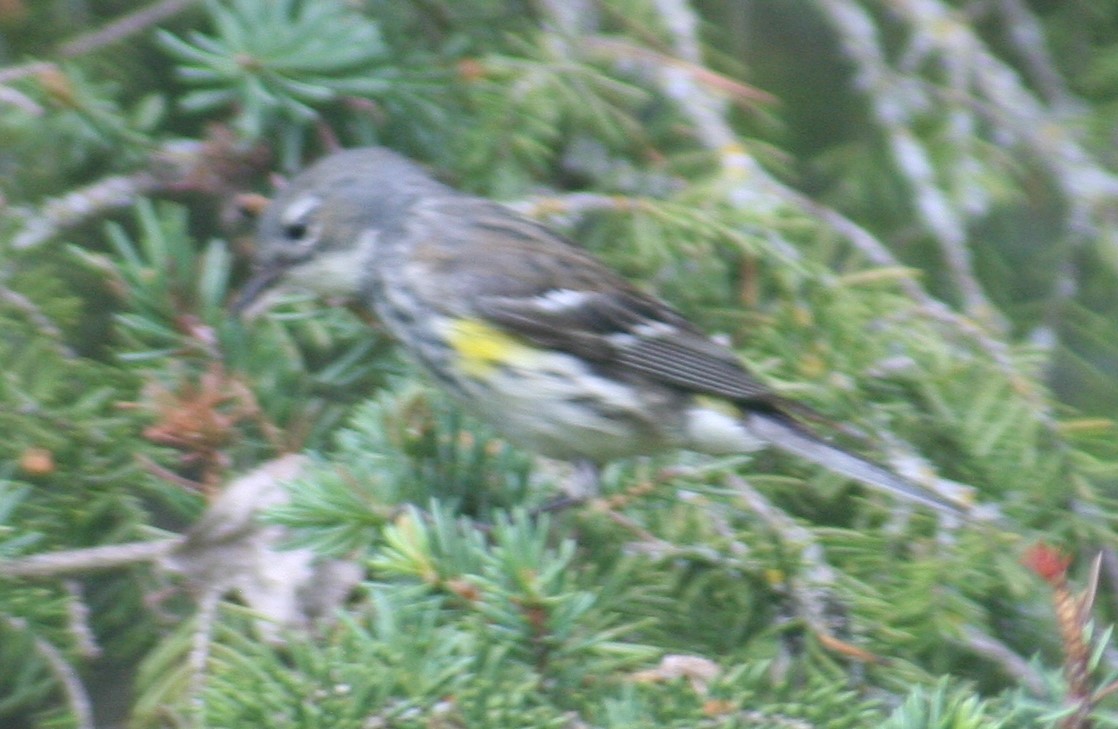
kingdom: Animalia
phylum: Chordata
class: Aves
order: Passeriformes
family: Parulidae
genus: Setophaga
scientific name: Setophaga coronata
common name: Myrtle warbler
